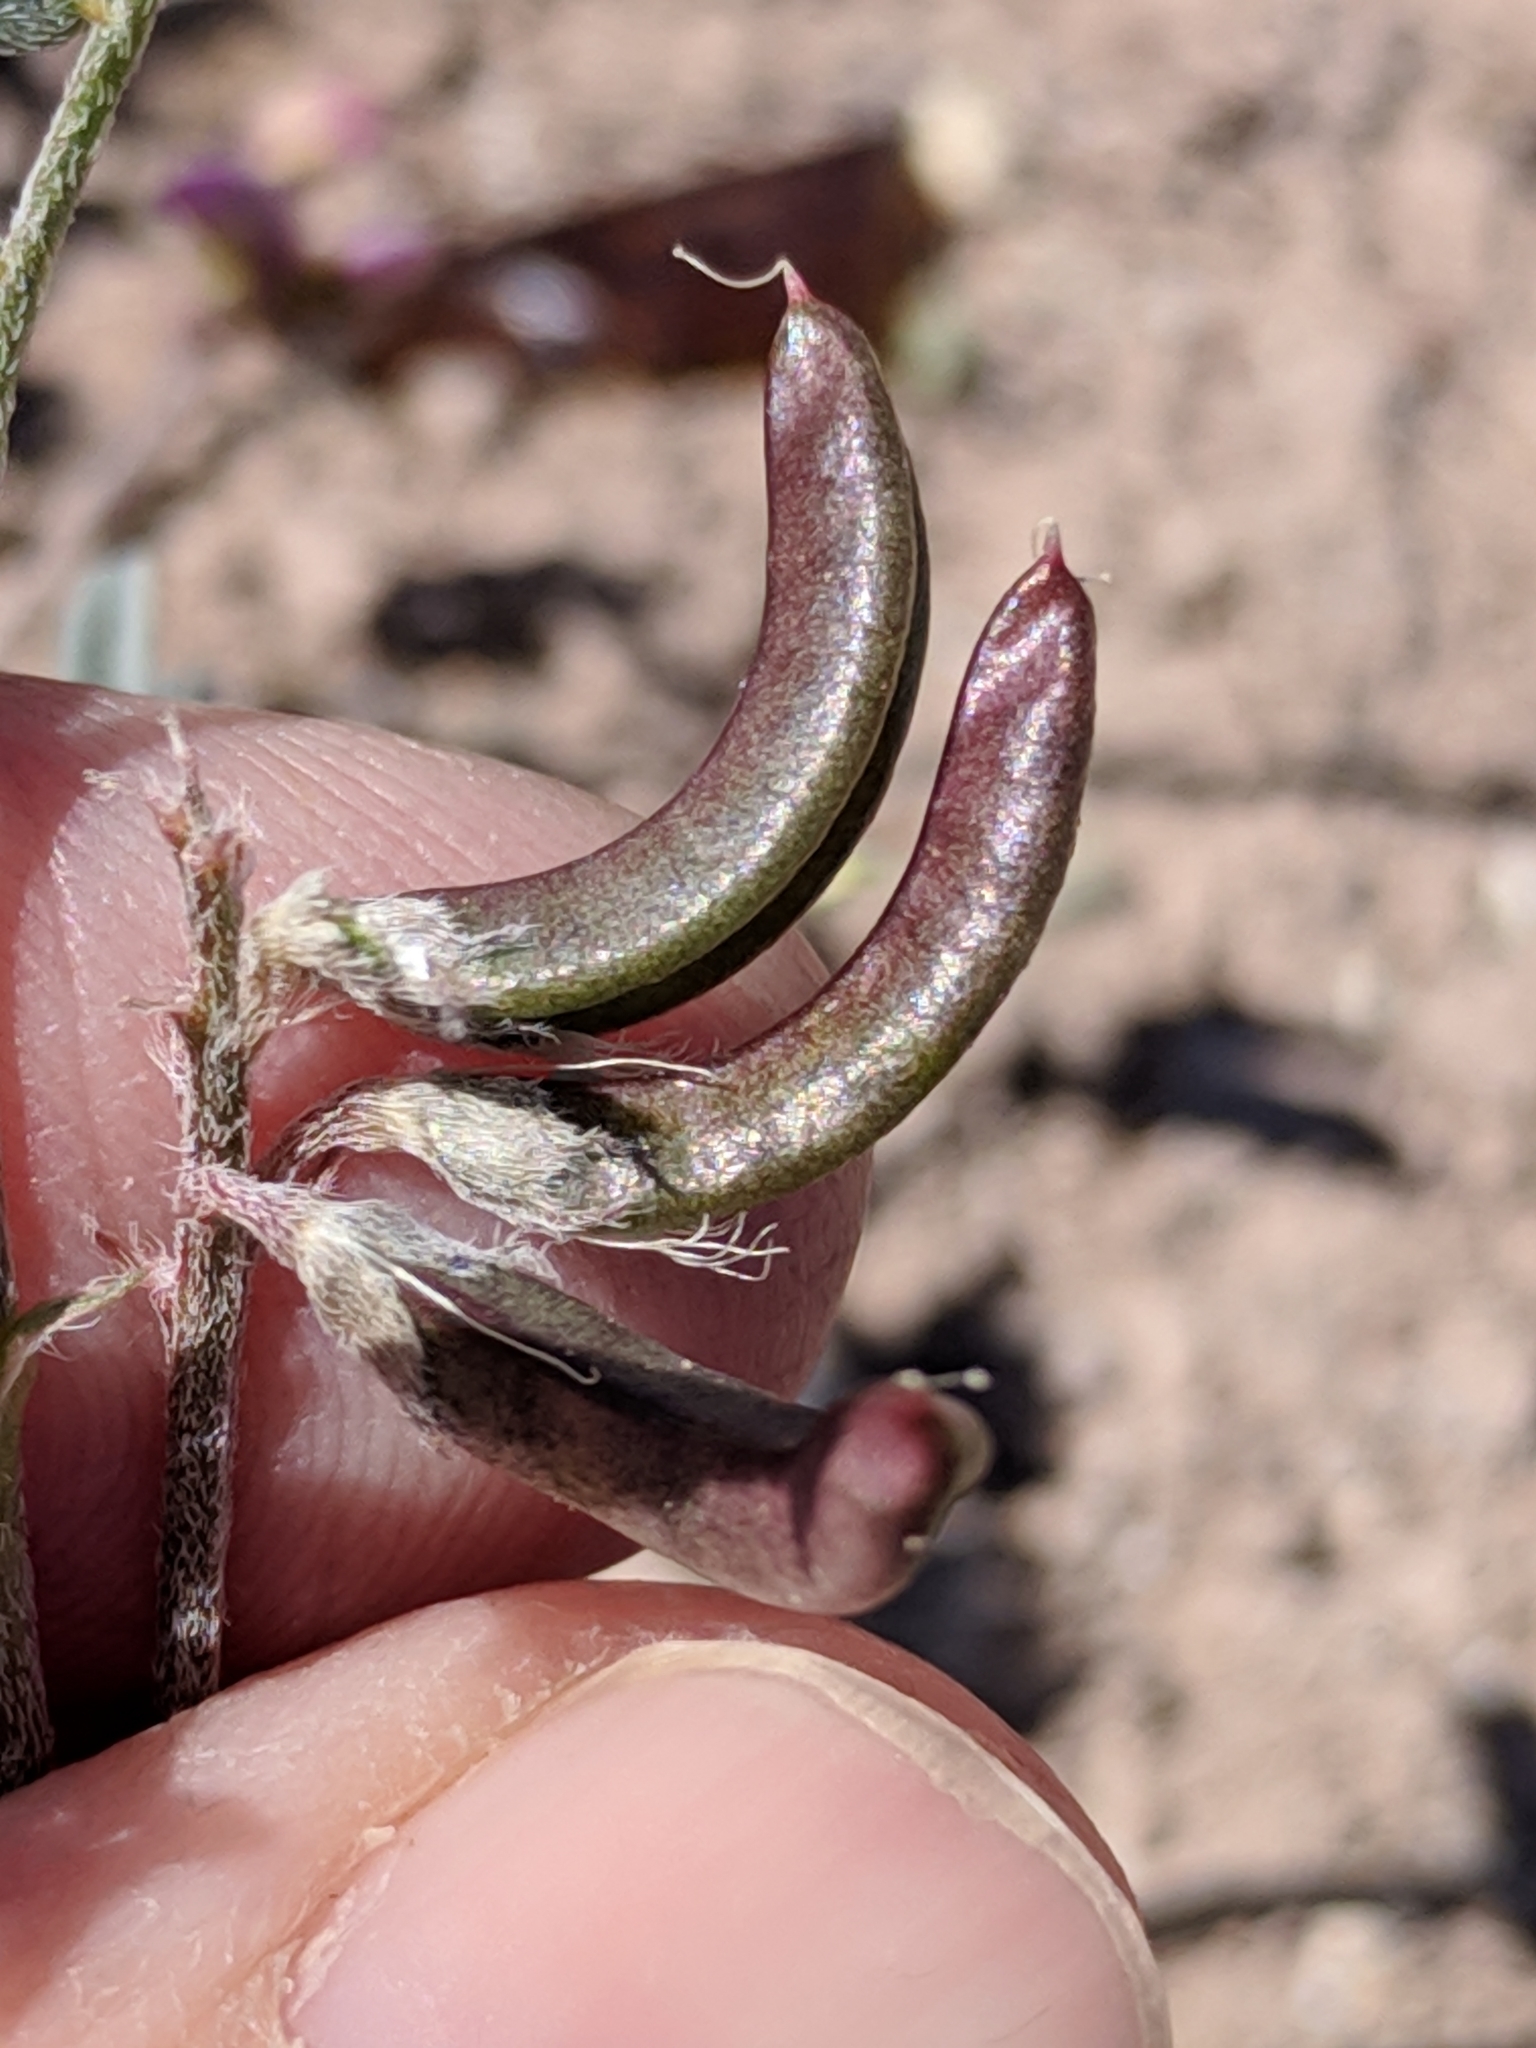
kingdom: Plantae
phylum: Tracheophyta
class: Magnoliopsida
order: Fabales
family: Fabaceae
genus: Astragalus
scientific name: Astragalus nuttallianus
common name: Smallflowered milkvetch
